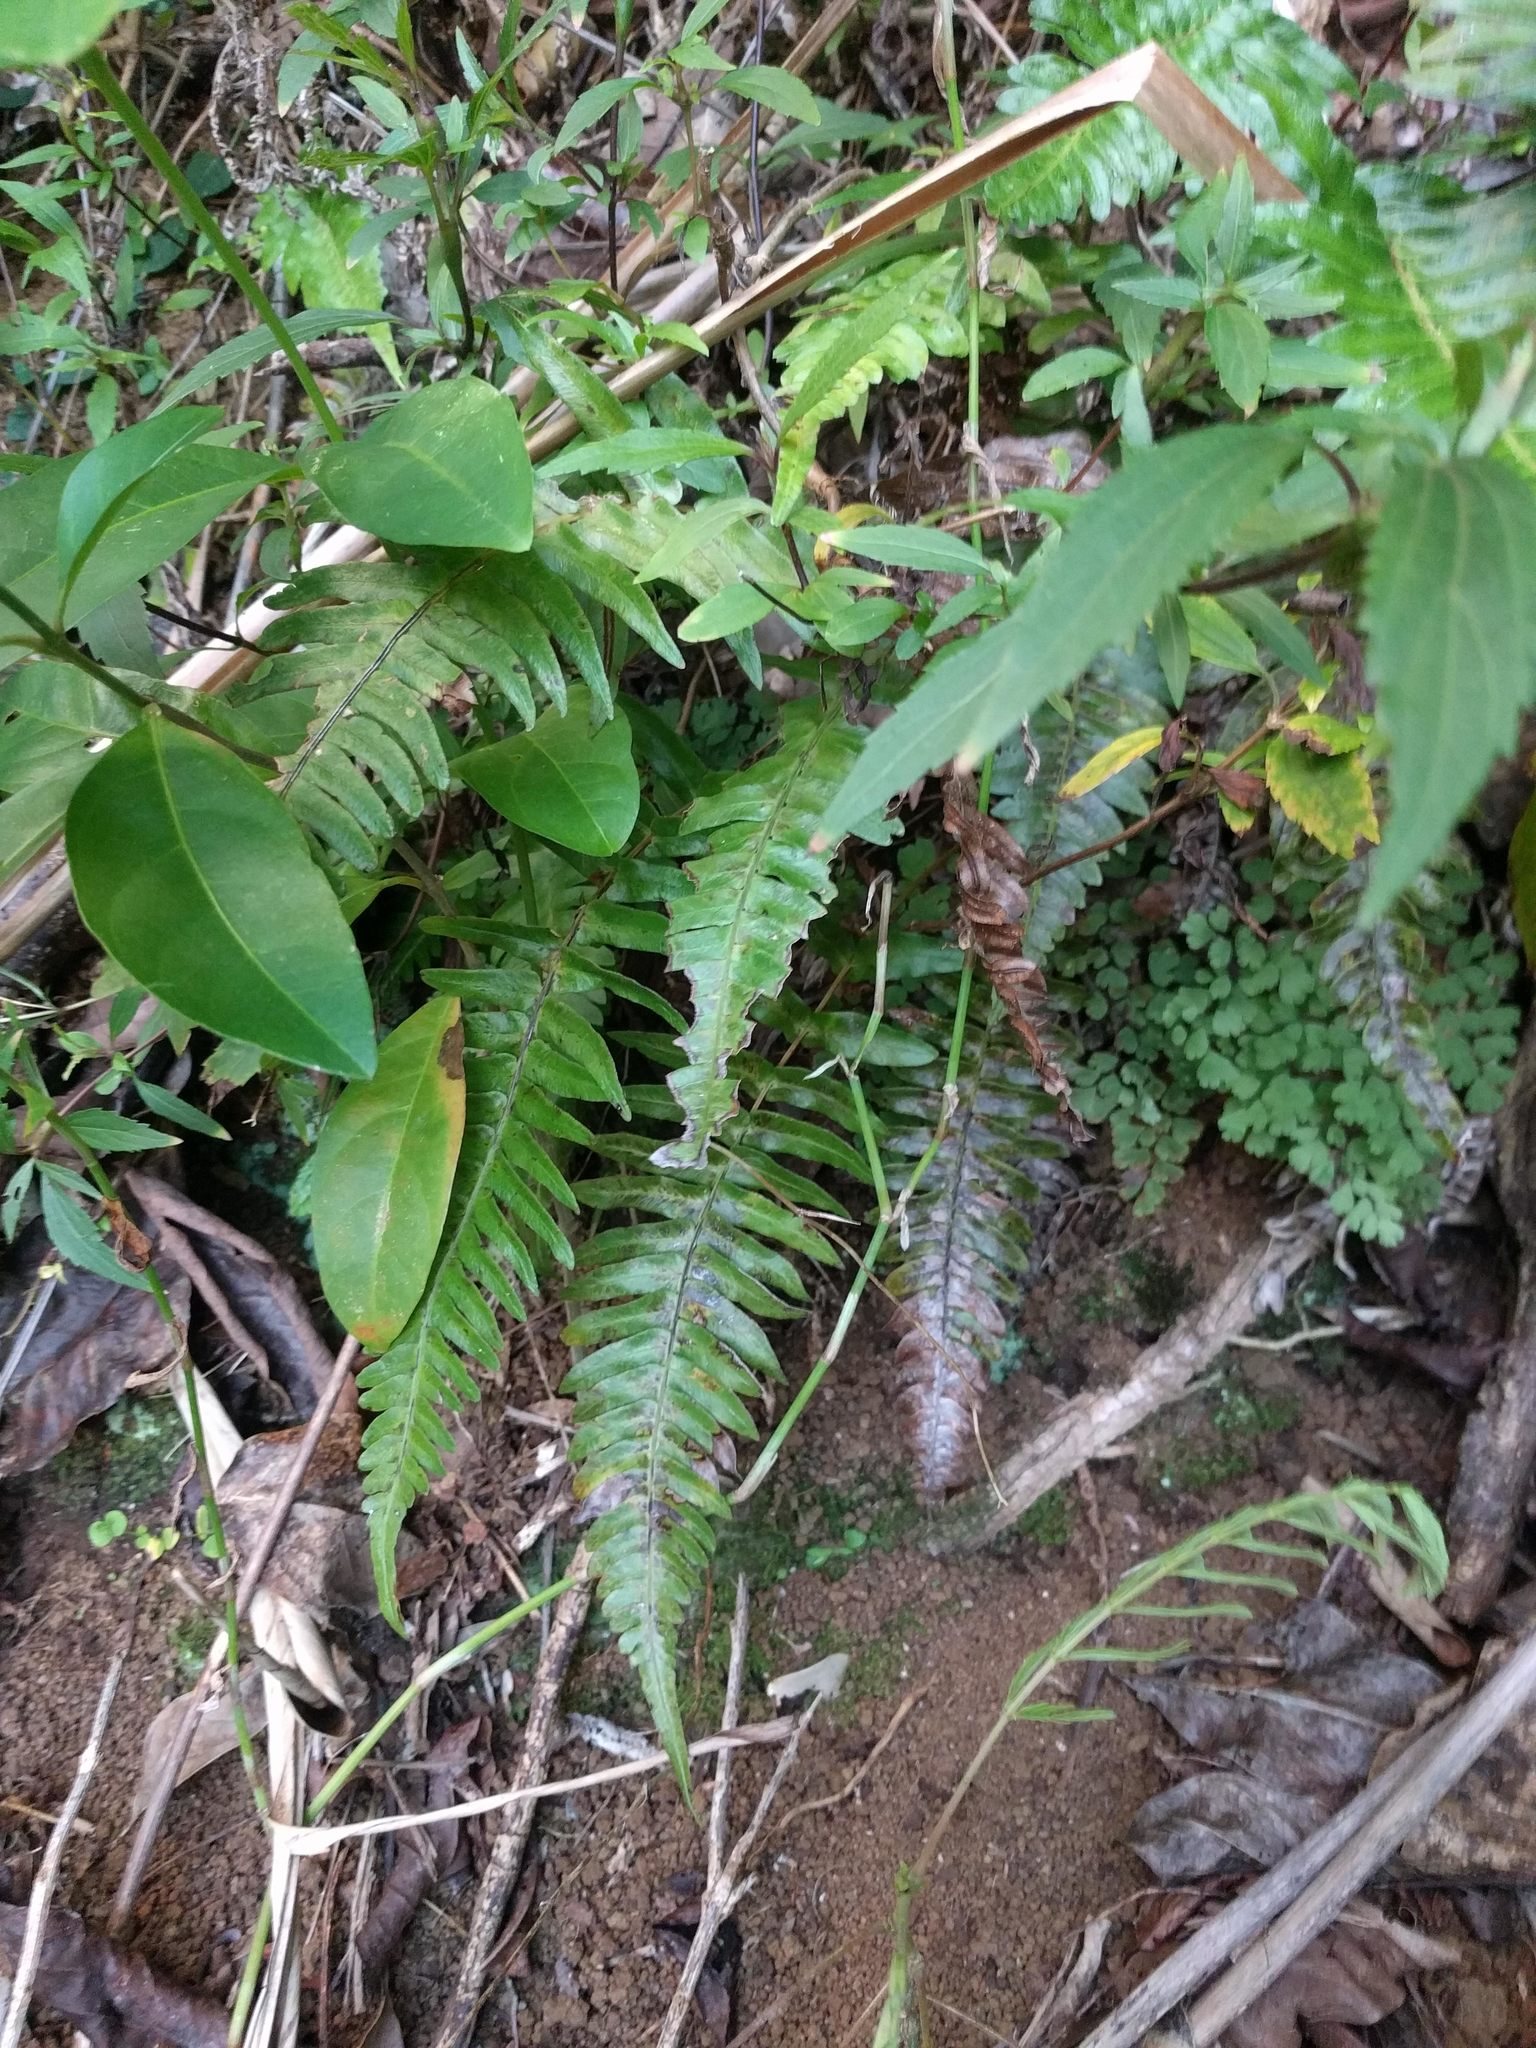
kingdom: Plantae
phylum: Tracheophyta
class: Polypodiopsida
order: Polypodiales
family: Blechnaceae
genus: Blechnum
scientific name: Blechnum appendiculatum
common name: Palm fern
